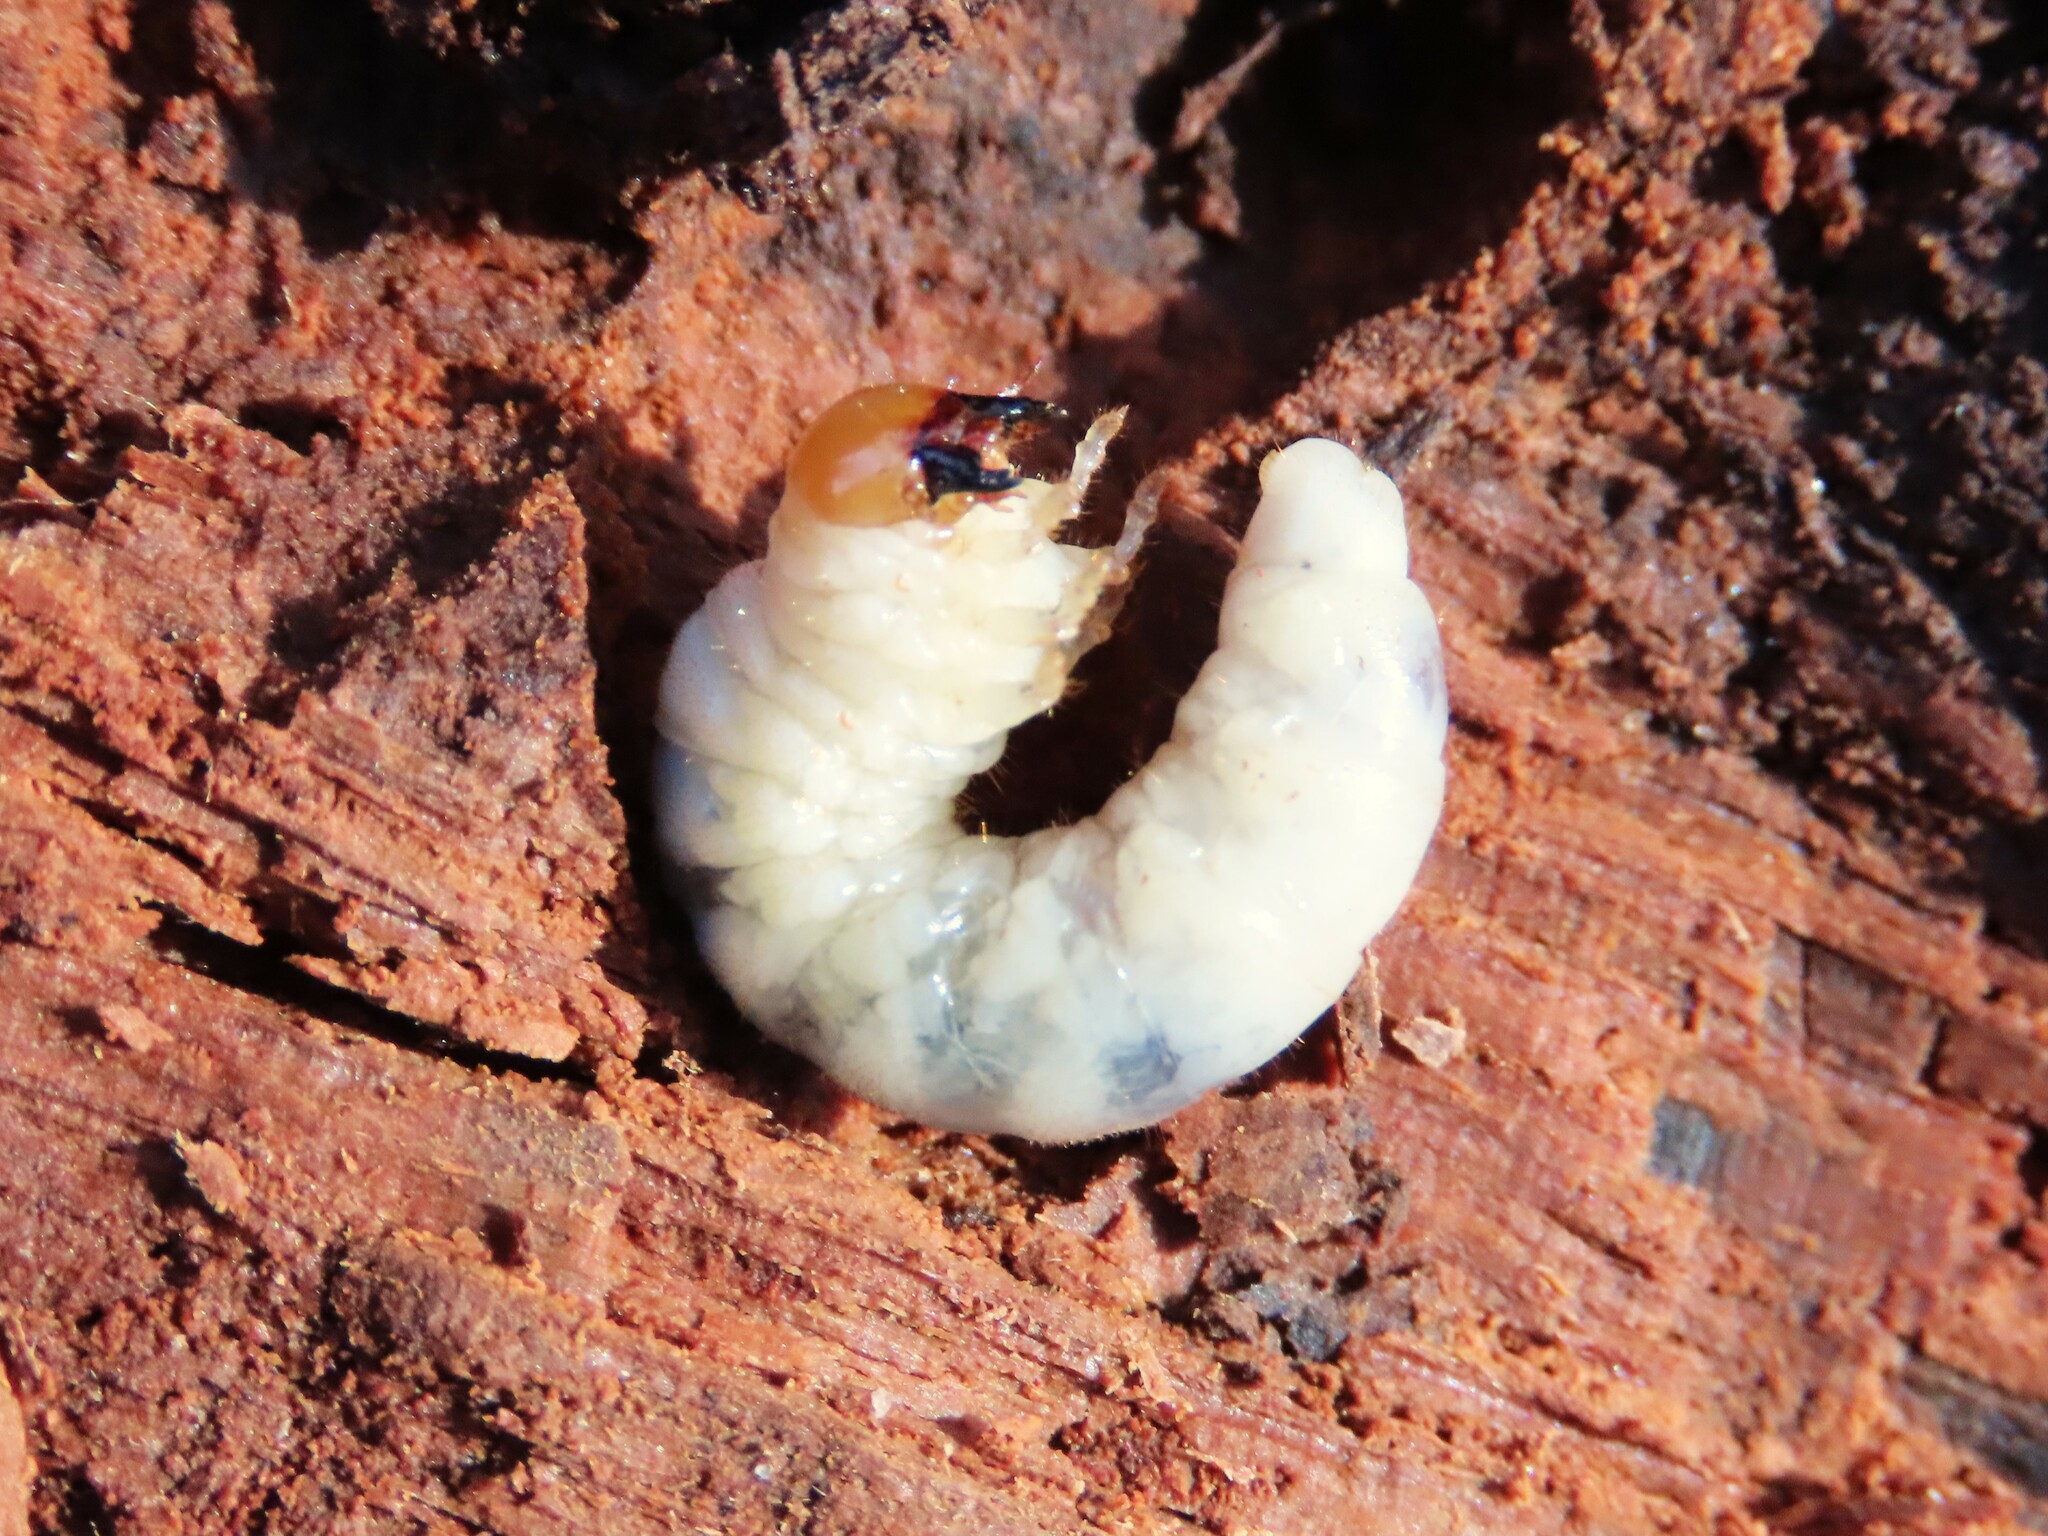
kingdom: Animalia
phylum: Arthropoda
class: Insecta
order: Coleoptera
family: Lucanidae
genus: Ceruchus
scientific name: Ceruchus piceus
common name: Red-rot decay stag beetle
